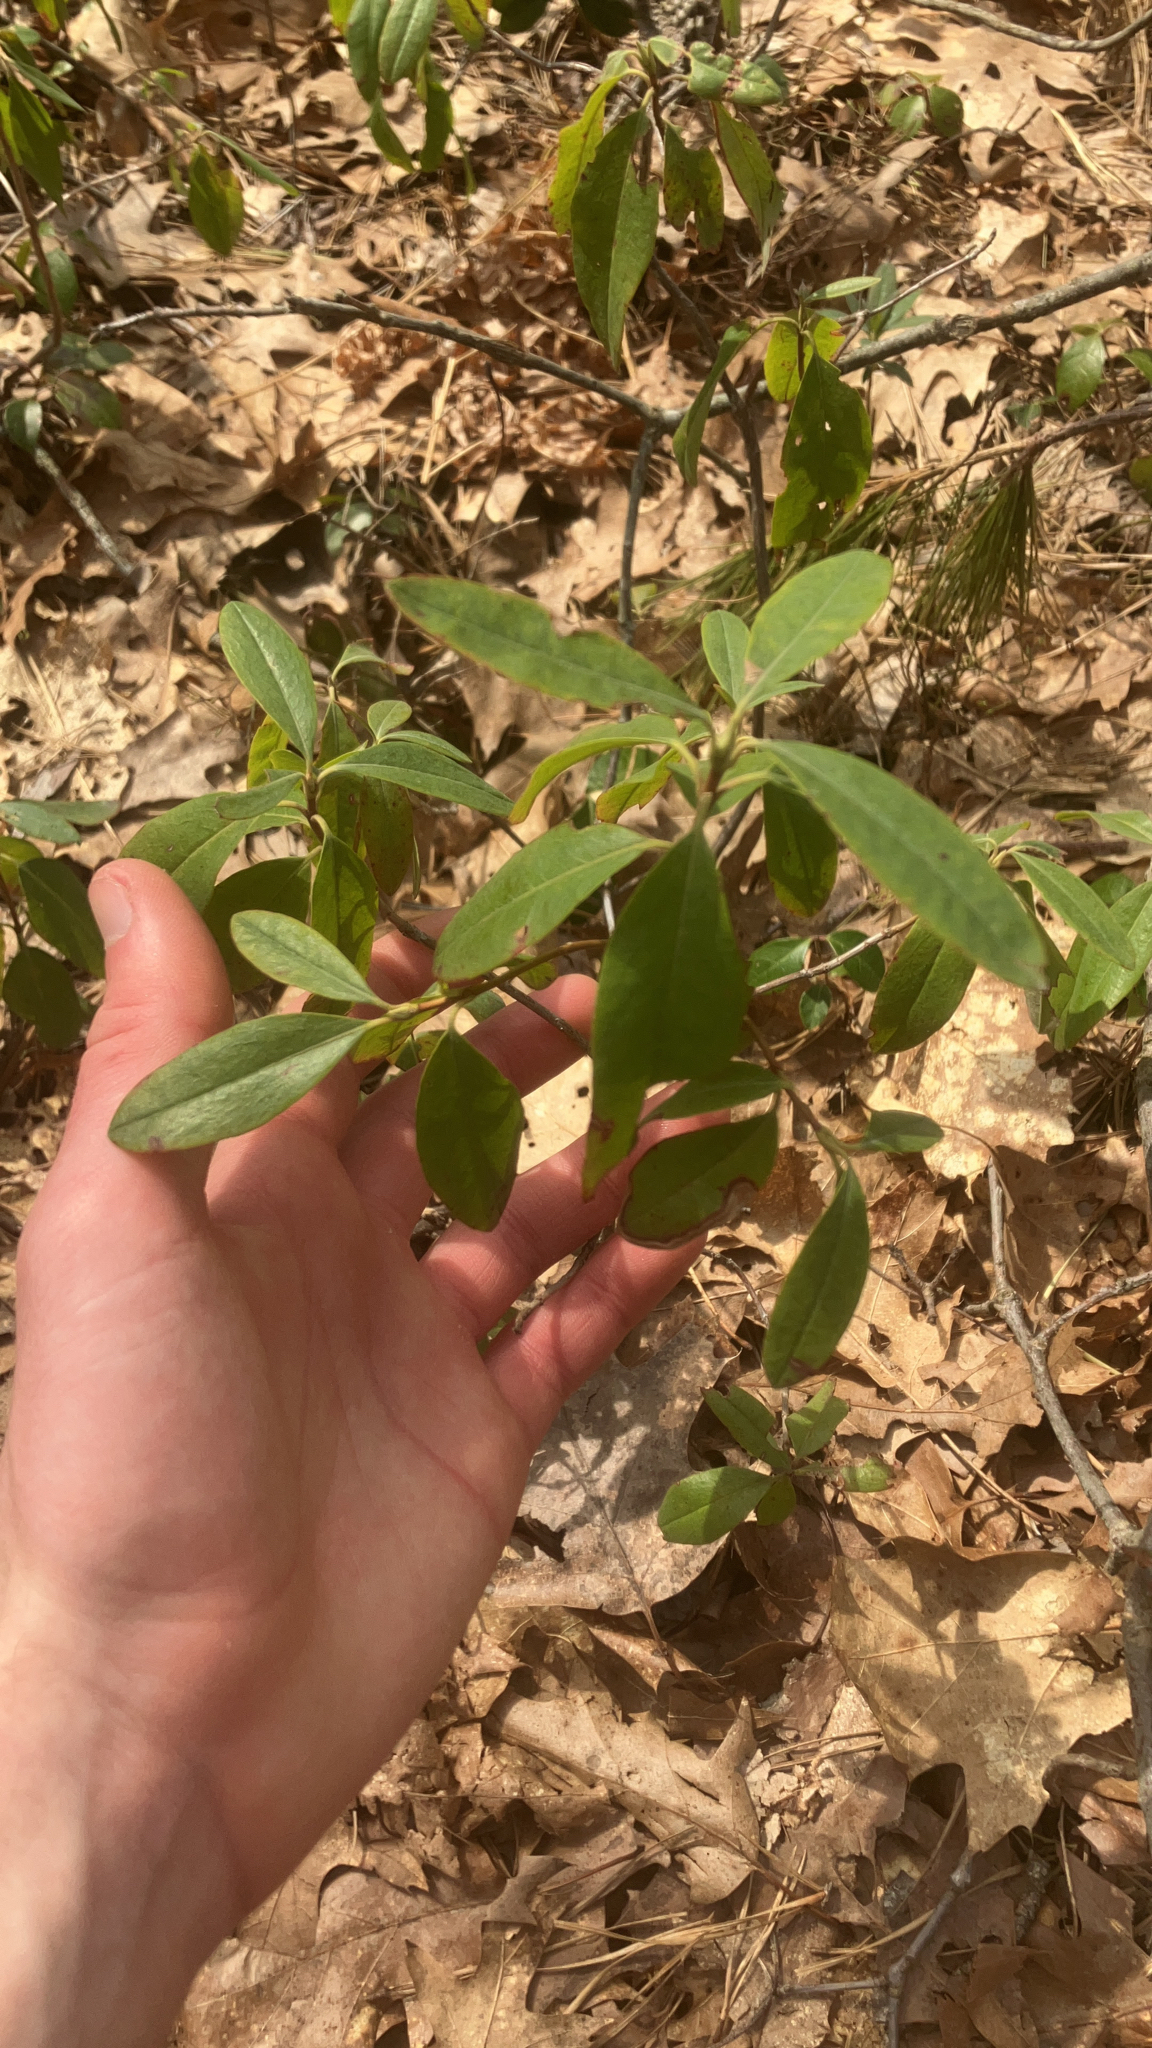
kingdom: Plantae
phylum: Tracheophyta
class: Magnoliopsida
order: Ericales
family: Ericaceae
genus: Kalmia
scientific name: Kalmia angustifolia
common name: Sheep-laurel
